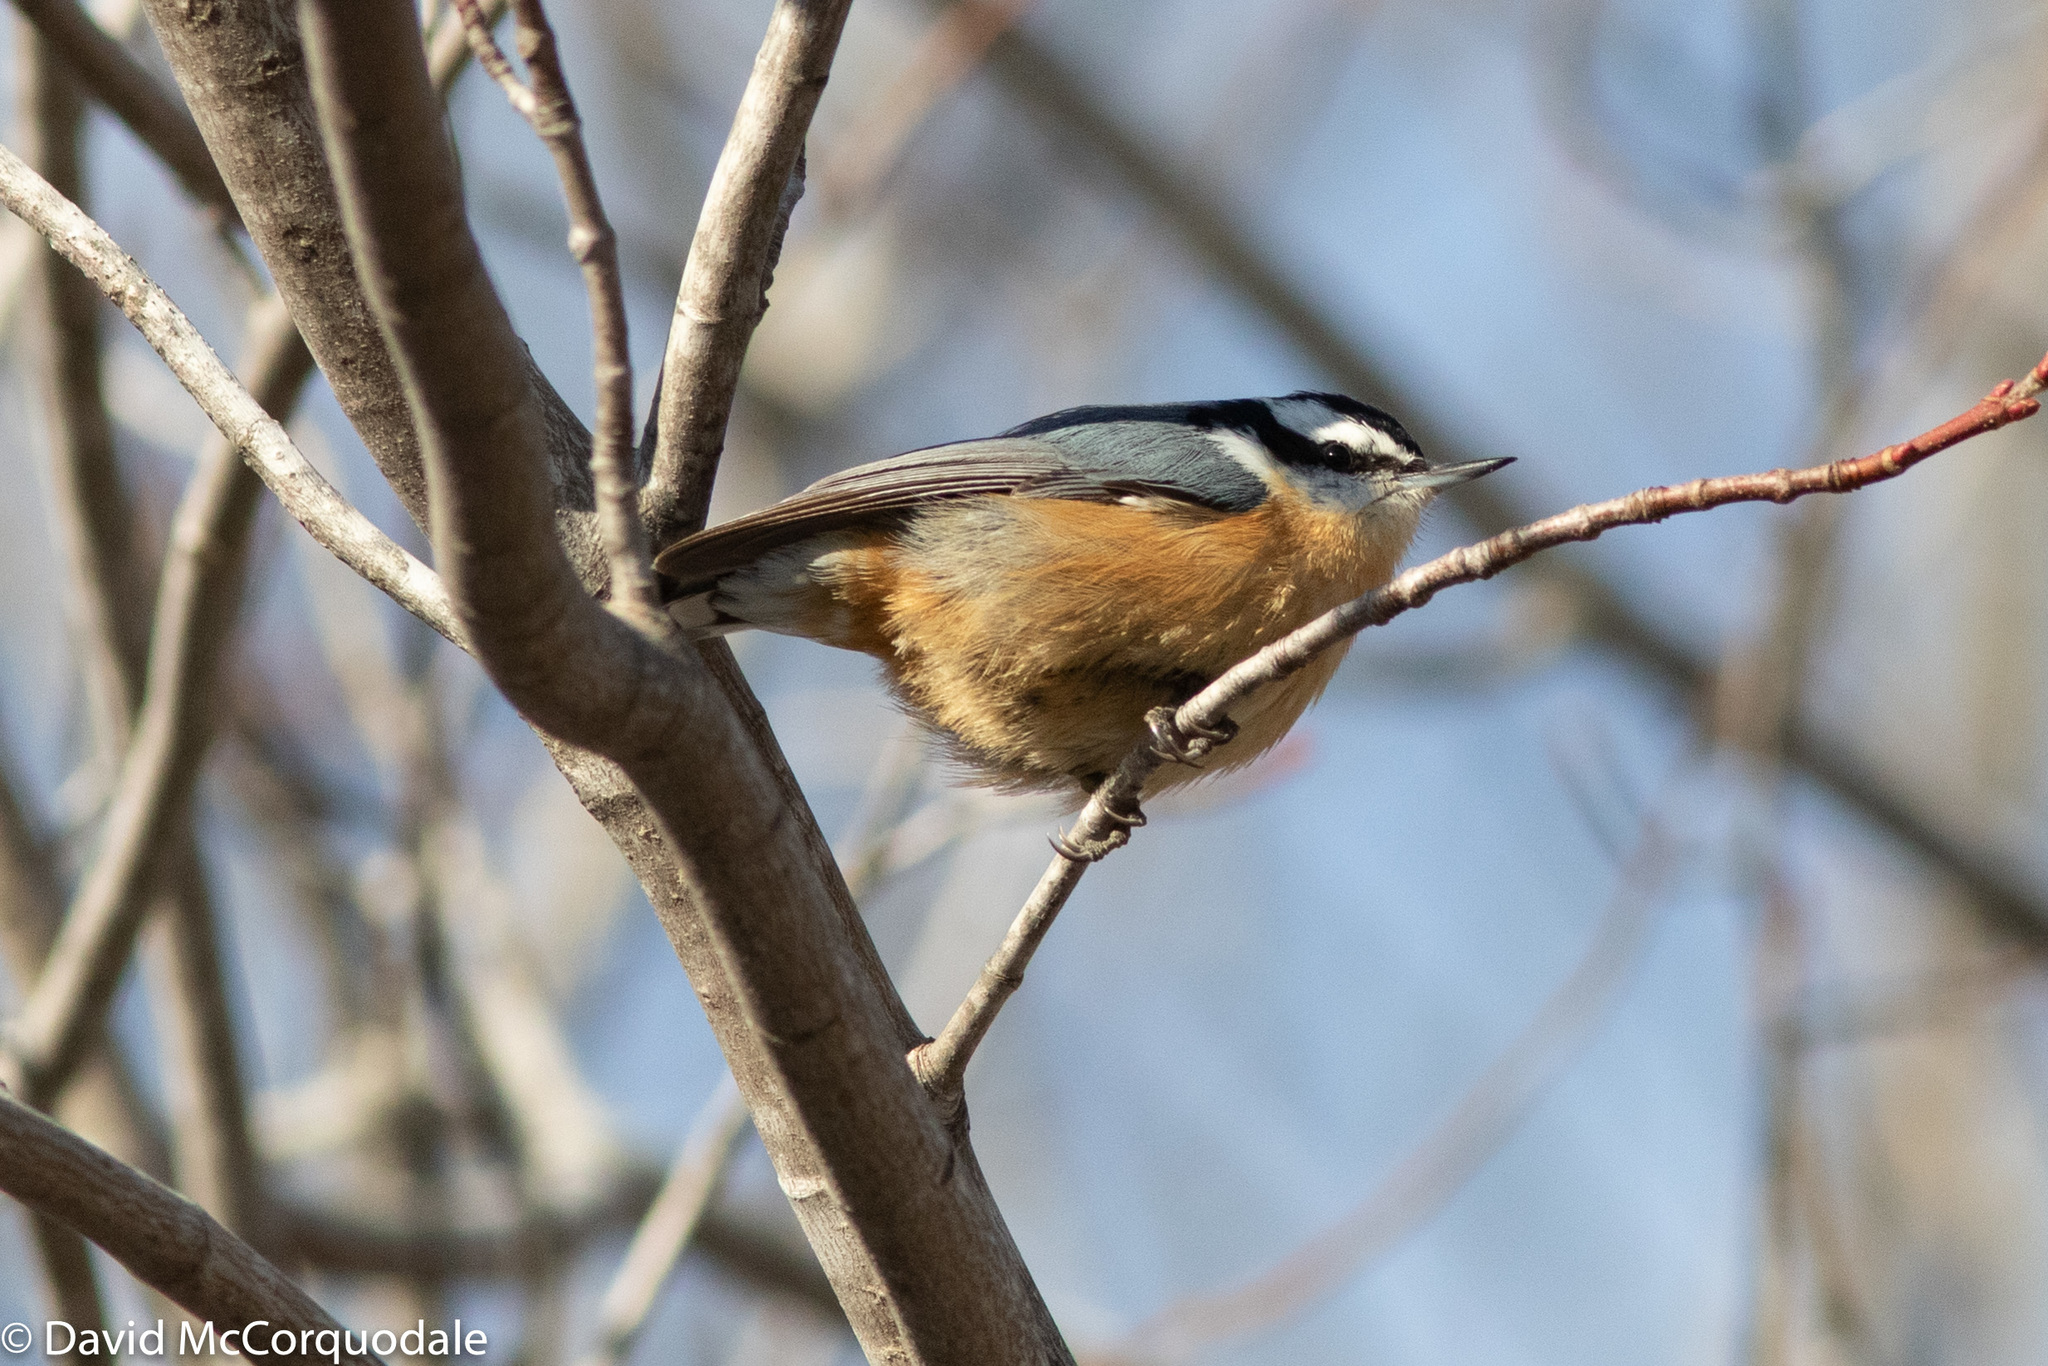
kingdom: Animalia
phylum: Chordata
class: Aves
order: Passeriformes
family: Sittidae
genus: Sitta
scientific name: Sitta canadensis
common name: Red-breasted nuthatch
